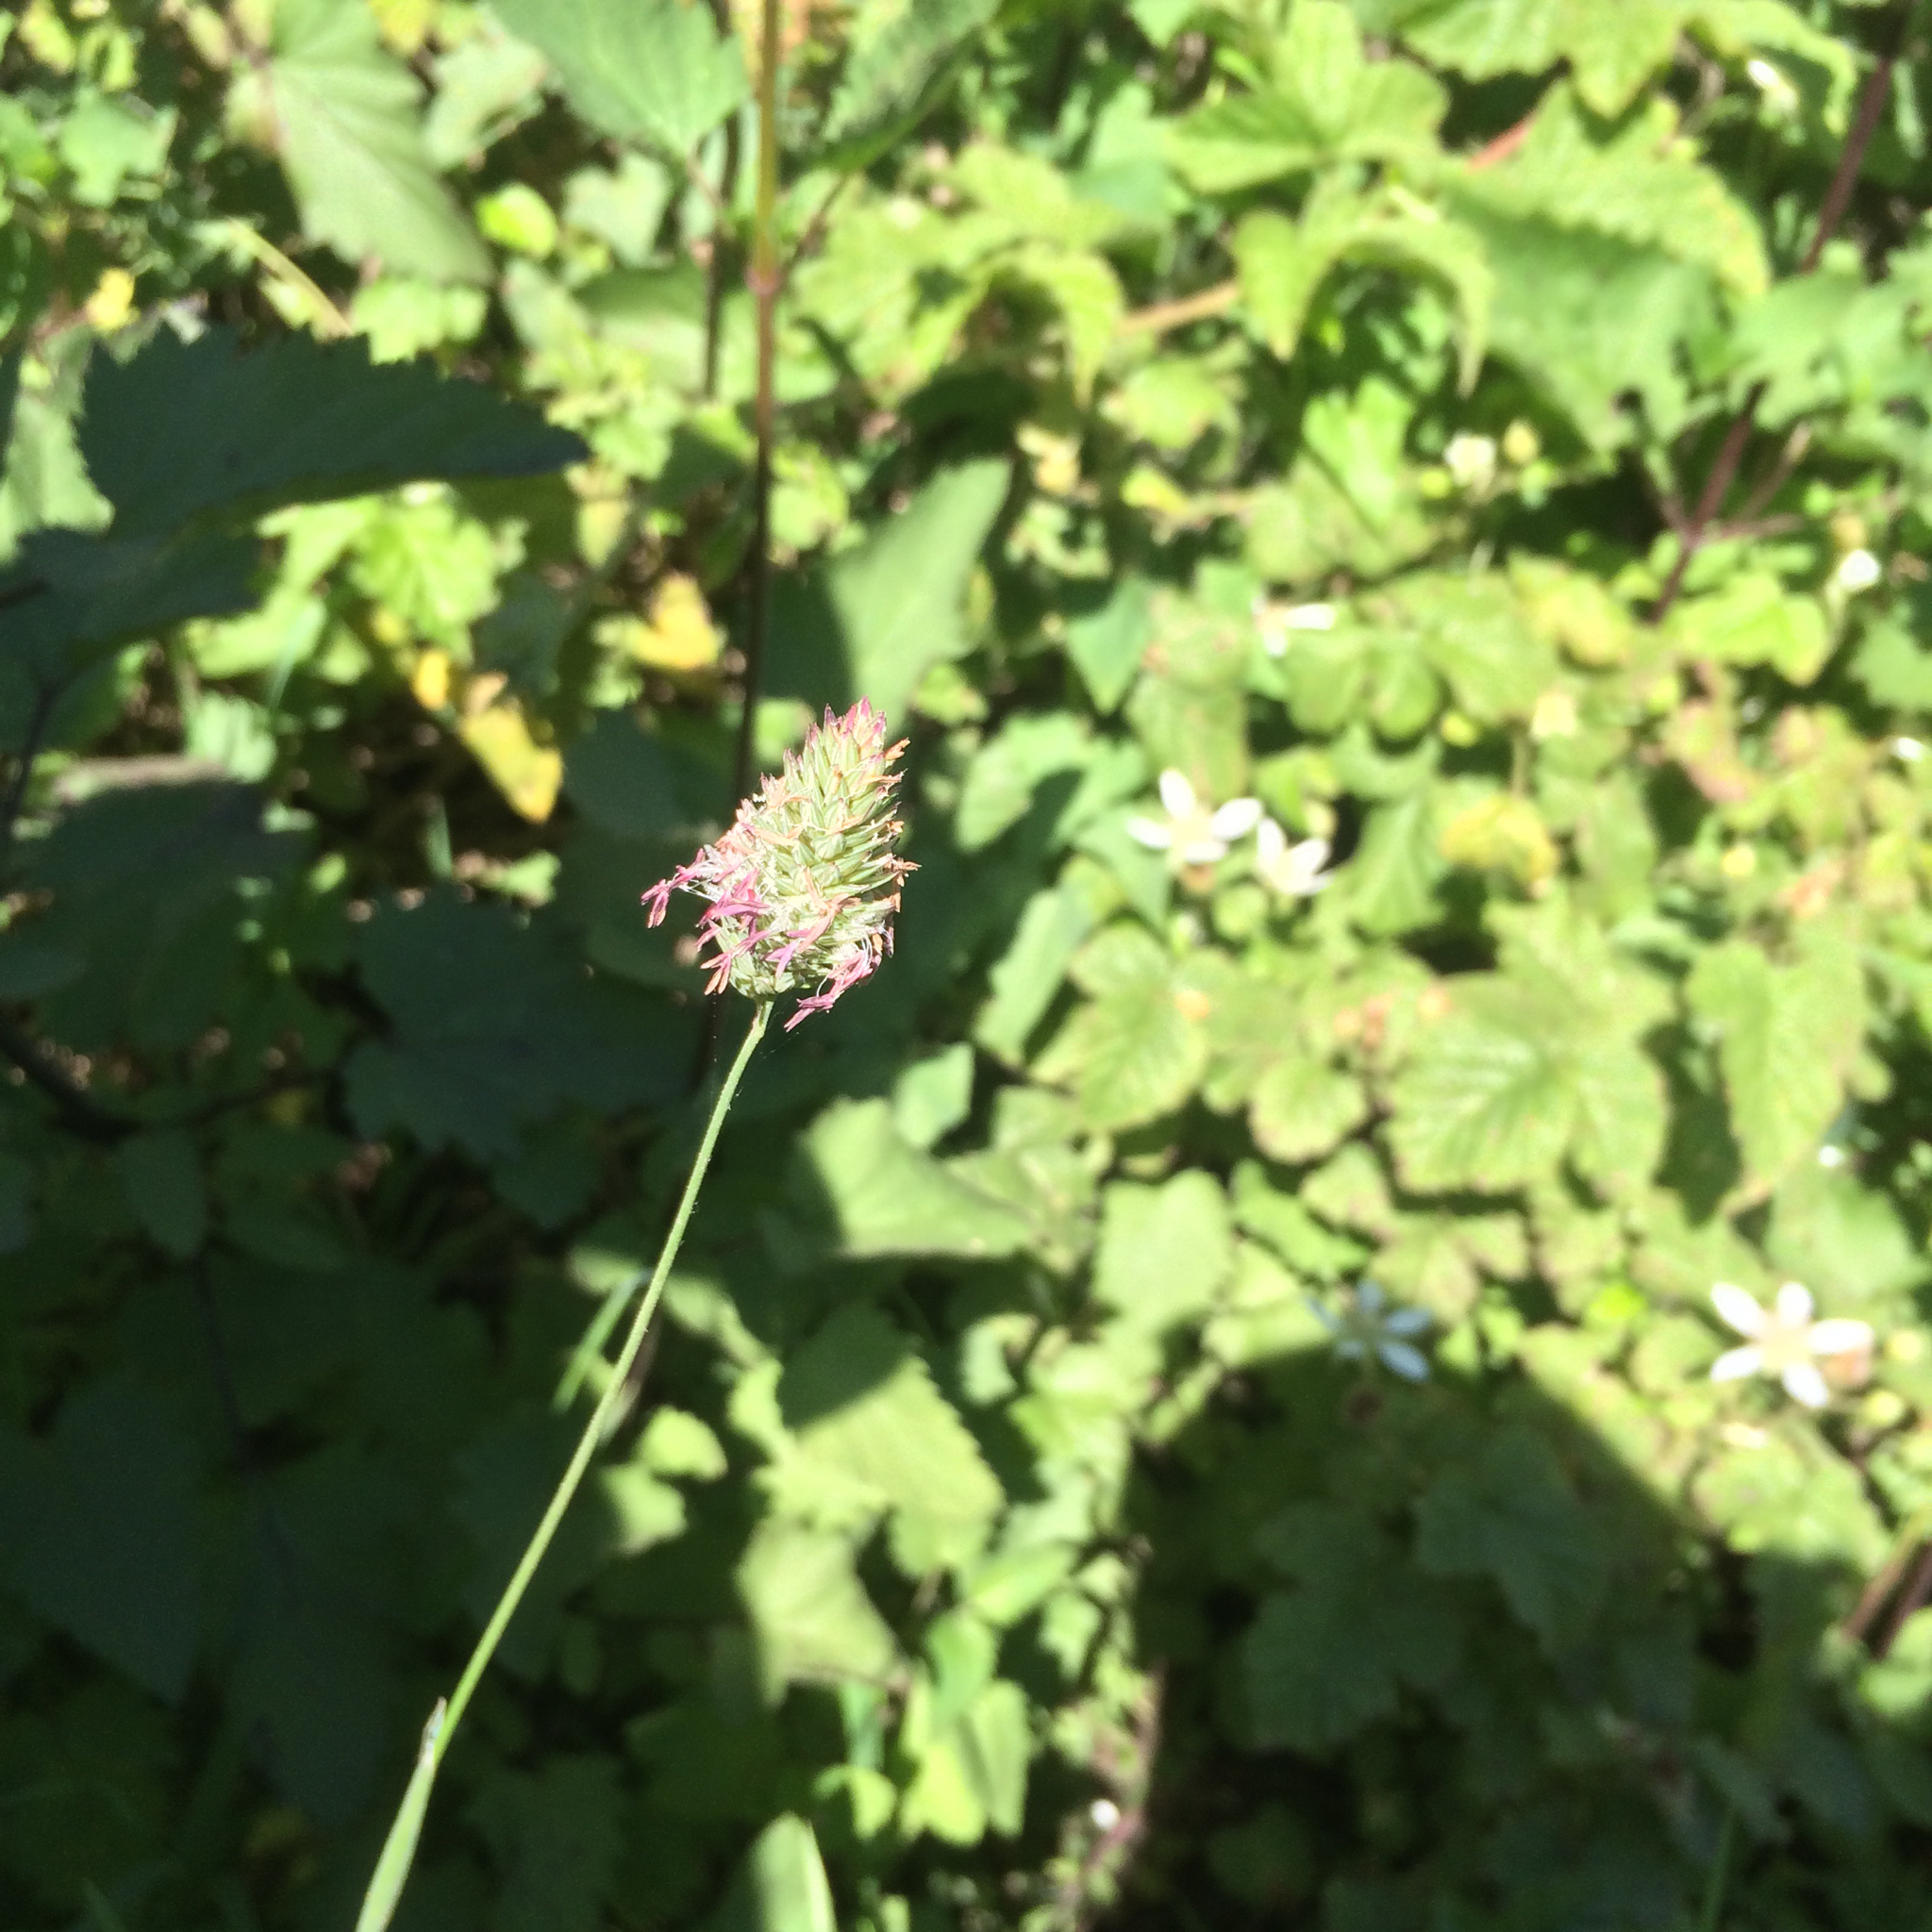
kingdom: Plantae
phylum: Tracheophyta
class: Liliopsida
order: Poales
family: Poaceae
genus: Phalaris
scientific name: Phalaris californica
